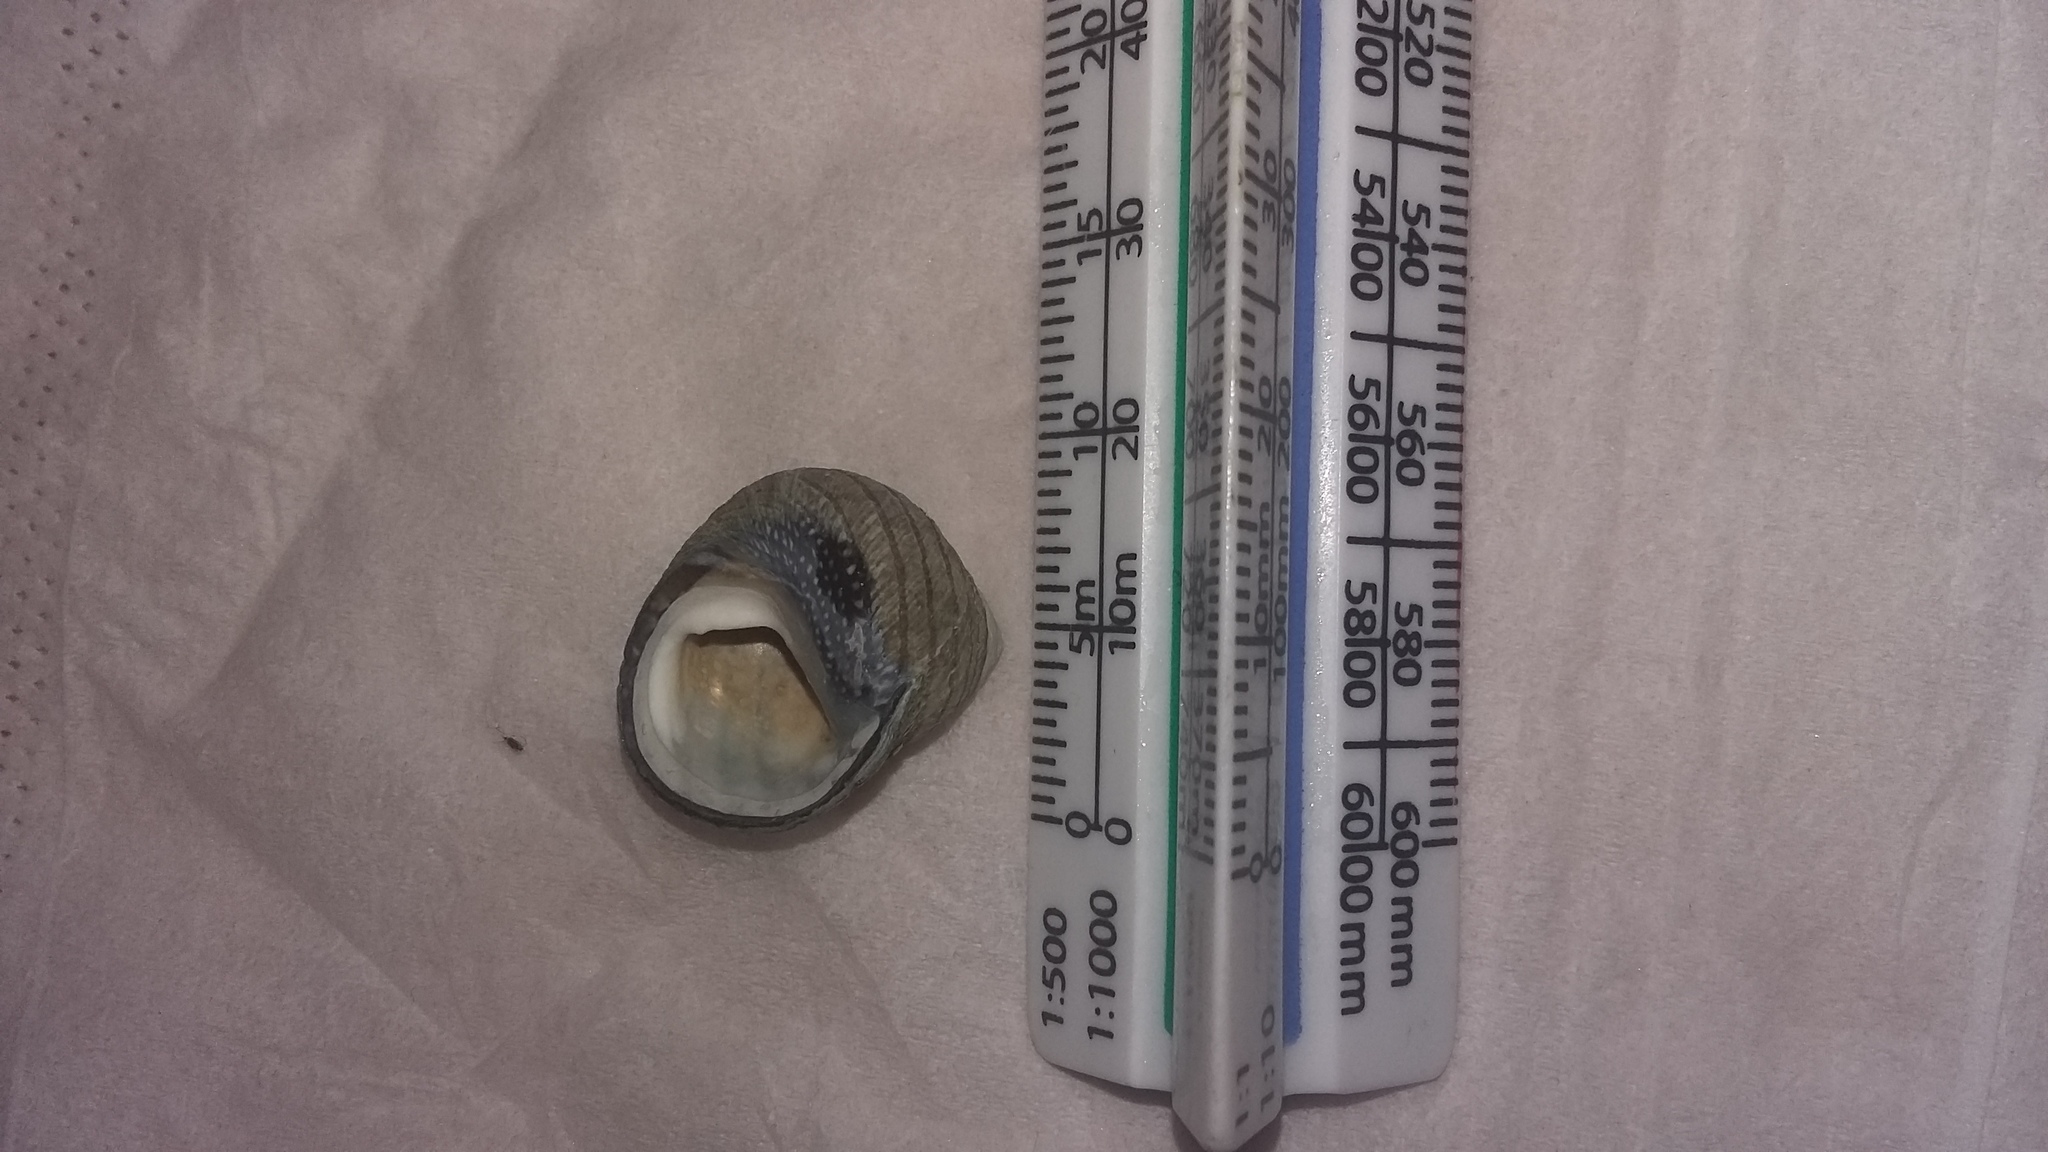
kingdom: Animalia
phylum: Mollusca
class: Gastropoda
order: Trochida
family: Trochidae
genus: Diloma
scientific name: Diloma aethiops
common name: Scorched monodont
